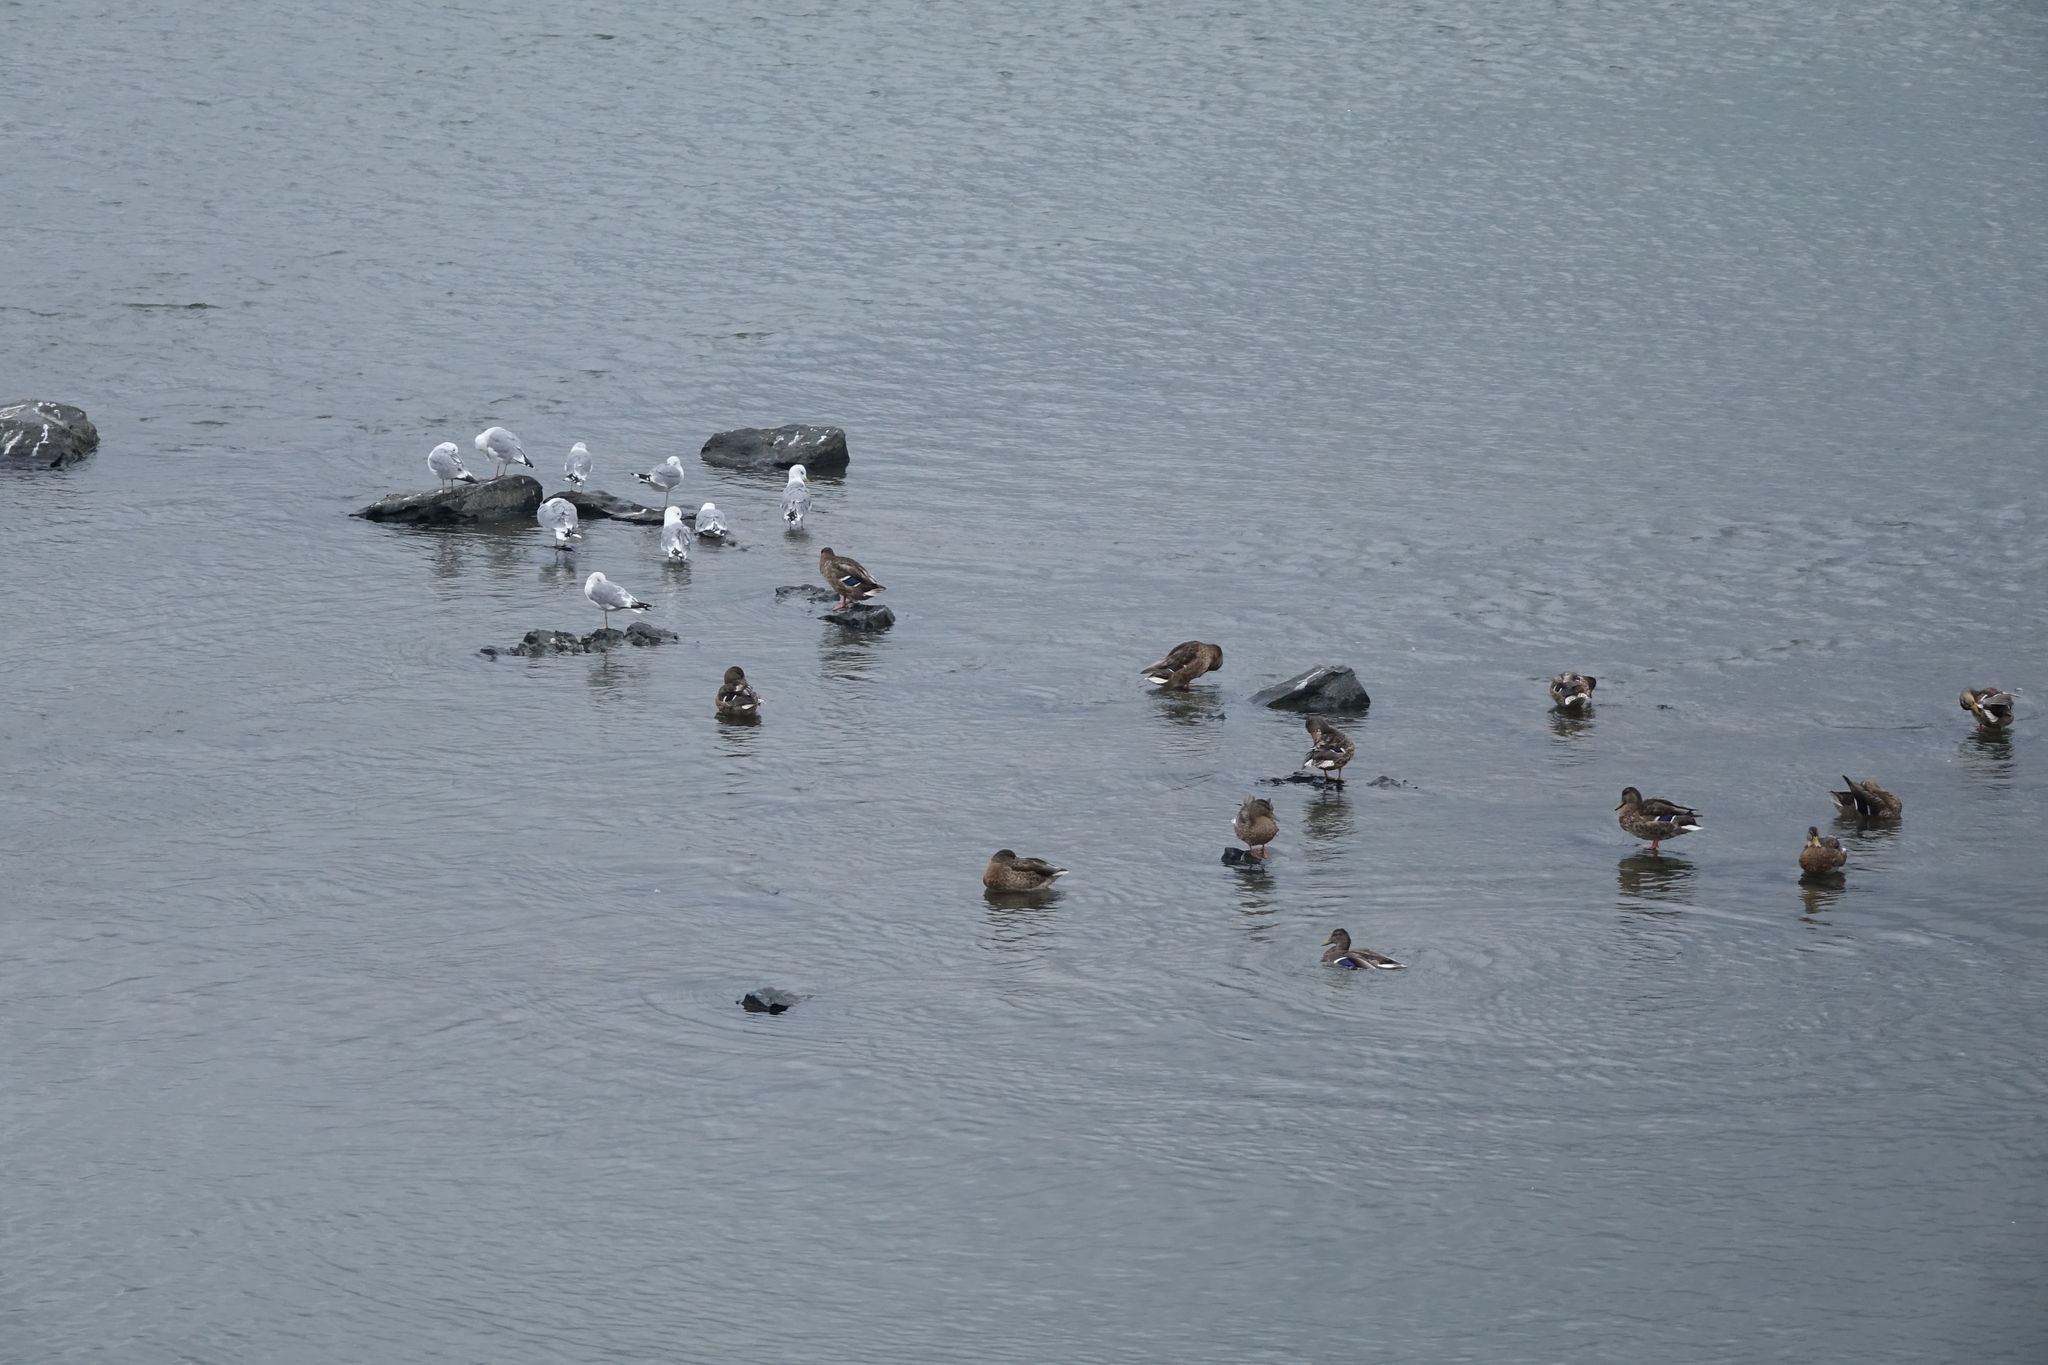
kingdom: Animalia
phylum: Chordata
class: Aves
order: Charadriiformes
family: Laridae
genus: Larus
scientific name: Larus canus
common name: Mew gull
